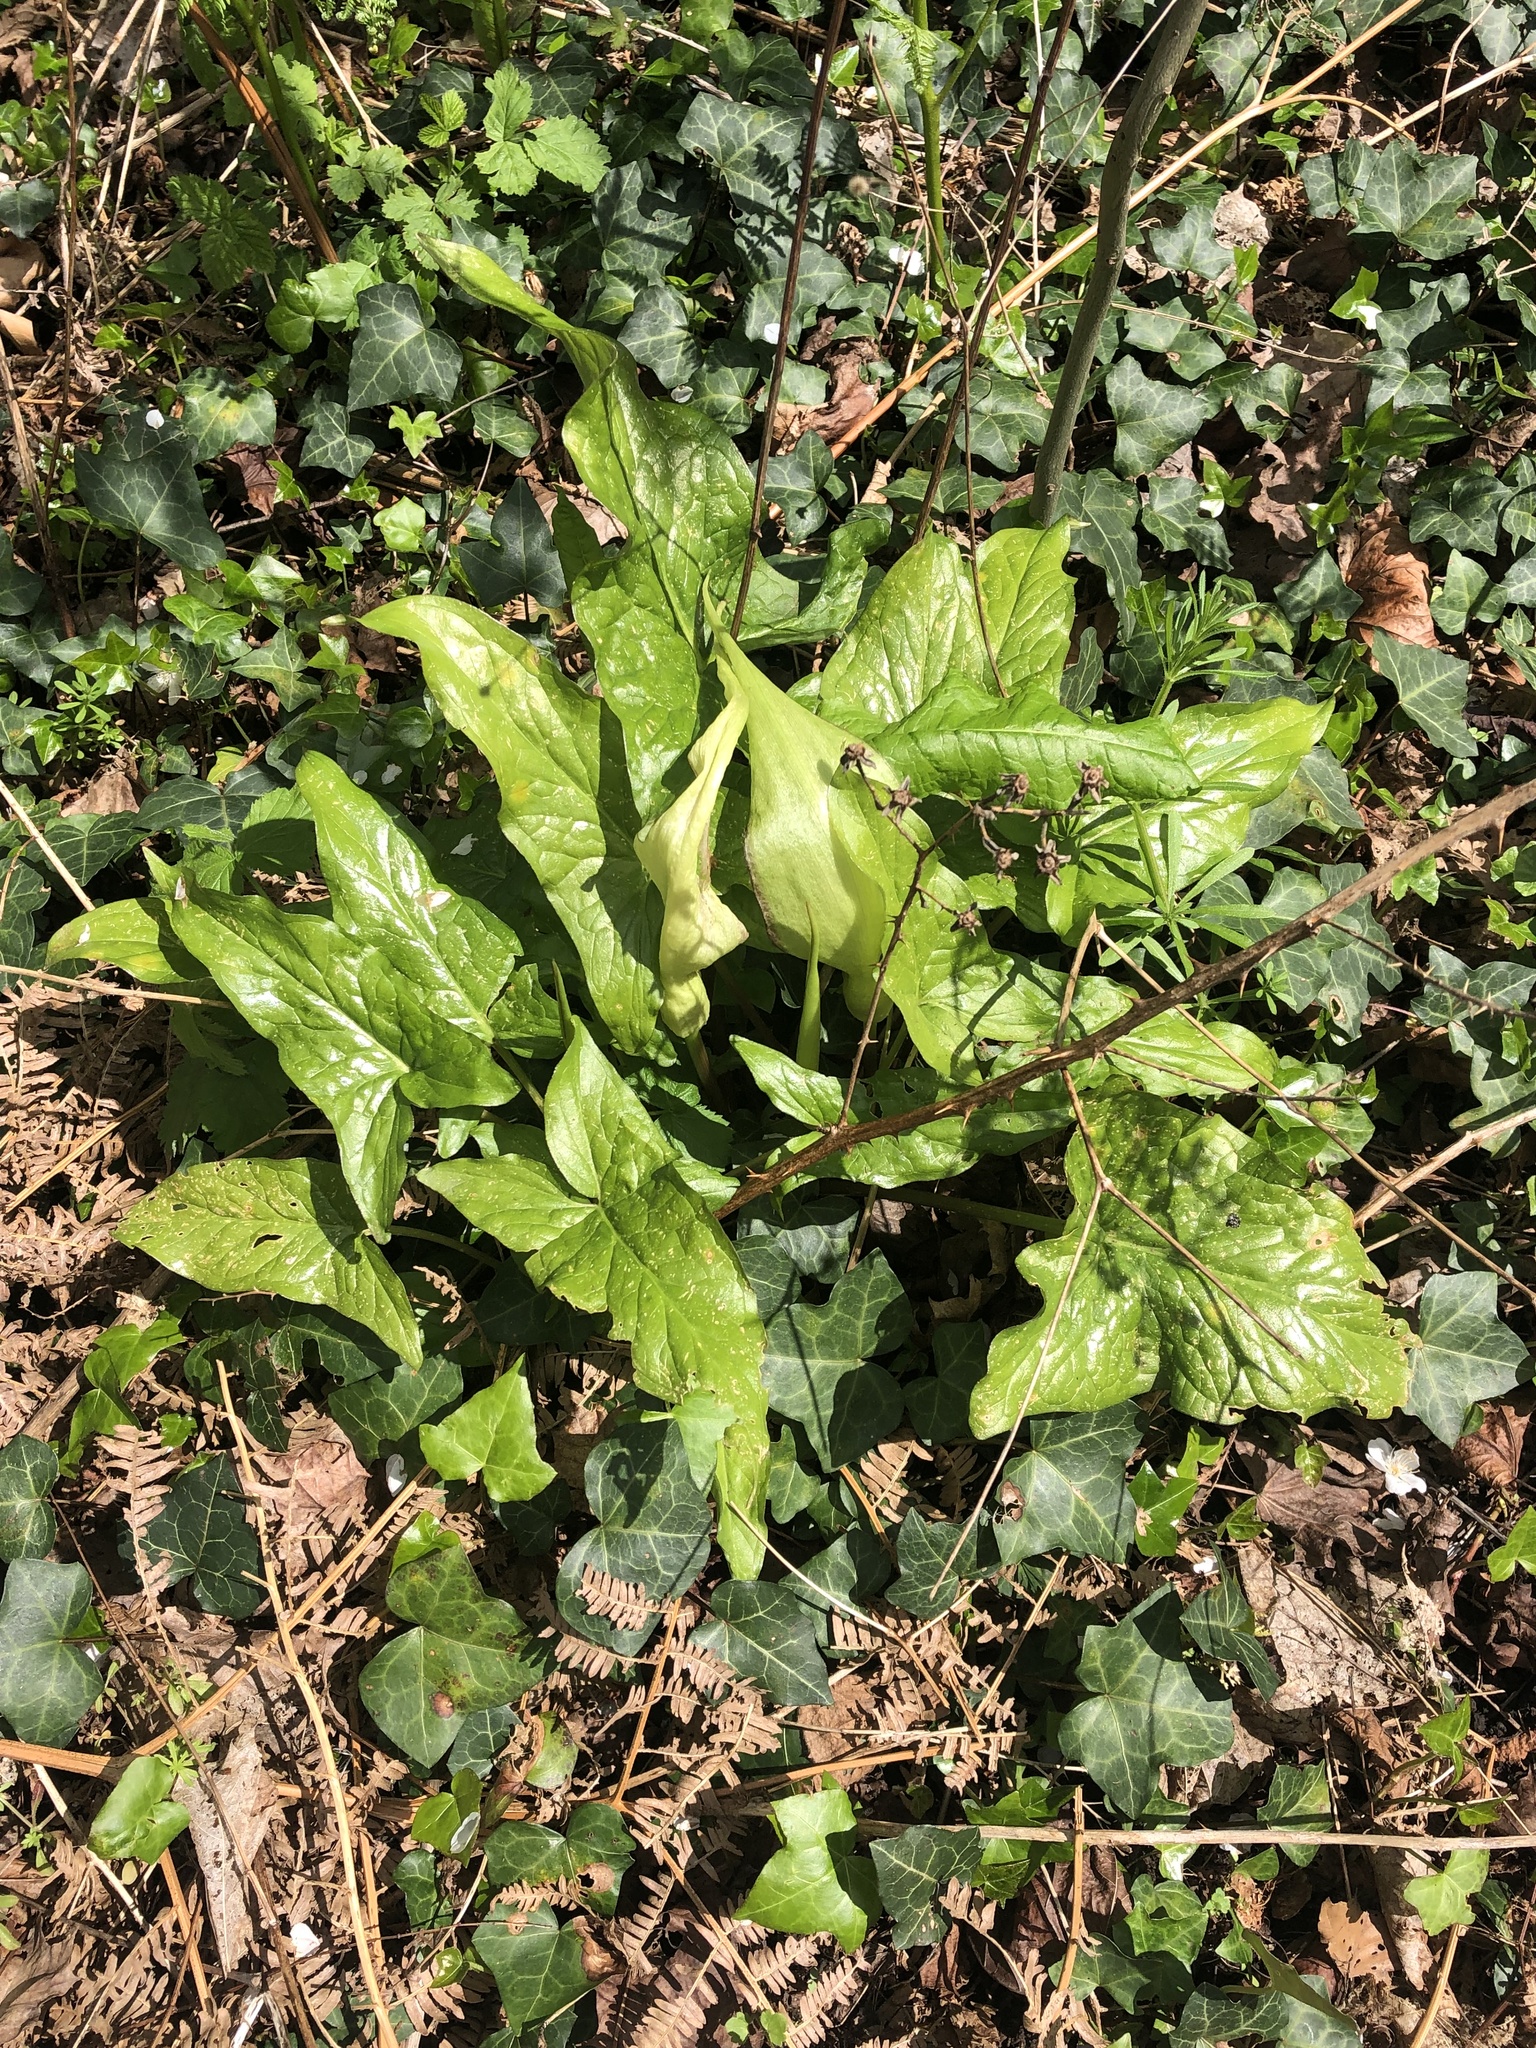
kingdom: Plantae
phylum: Tracheophyta
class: Liliopsida
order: Alismatales
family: Araceae
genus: Arum
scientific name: Arum maculatum
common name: Lords-and-ladies
